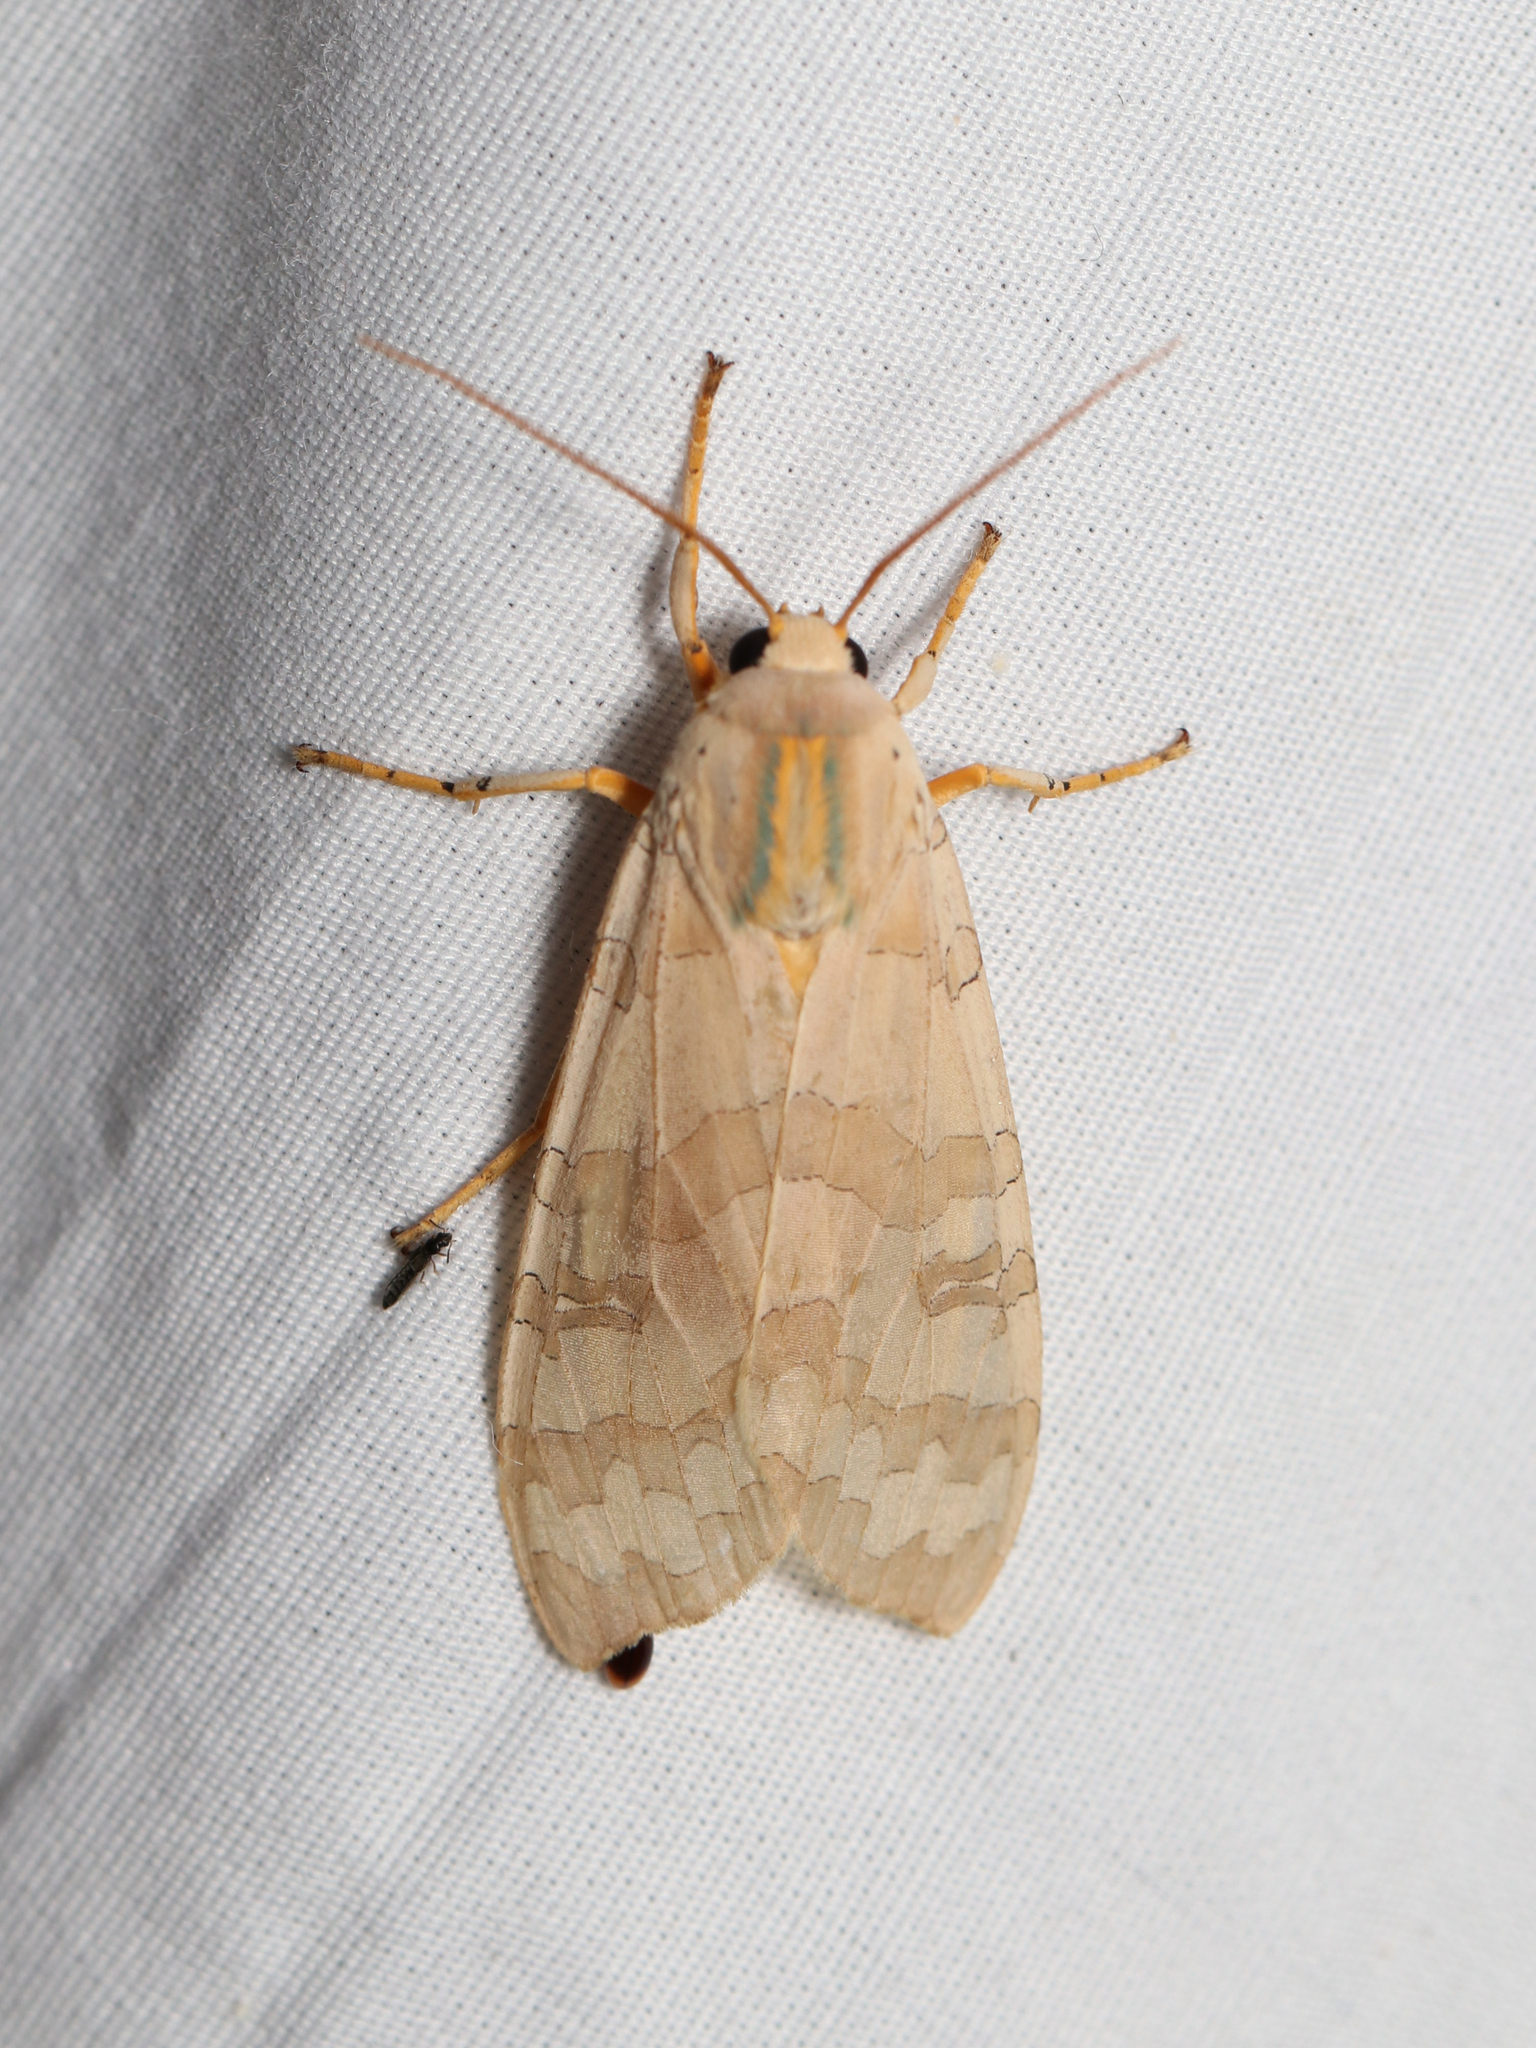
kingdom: Animalia
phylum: Arthropoda
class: Insecta
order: Lepidoptera
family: Erebidae
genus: Halysidota
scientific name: Halysidota
